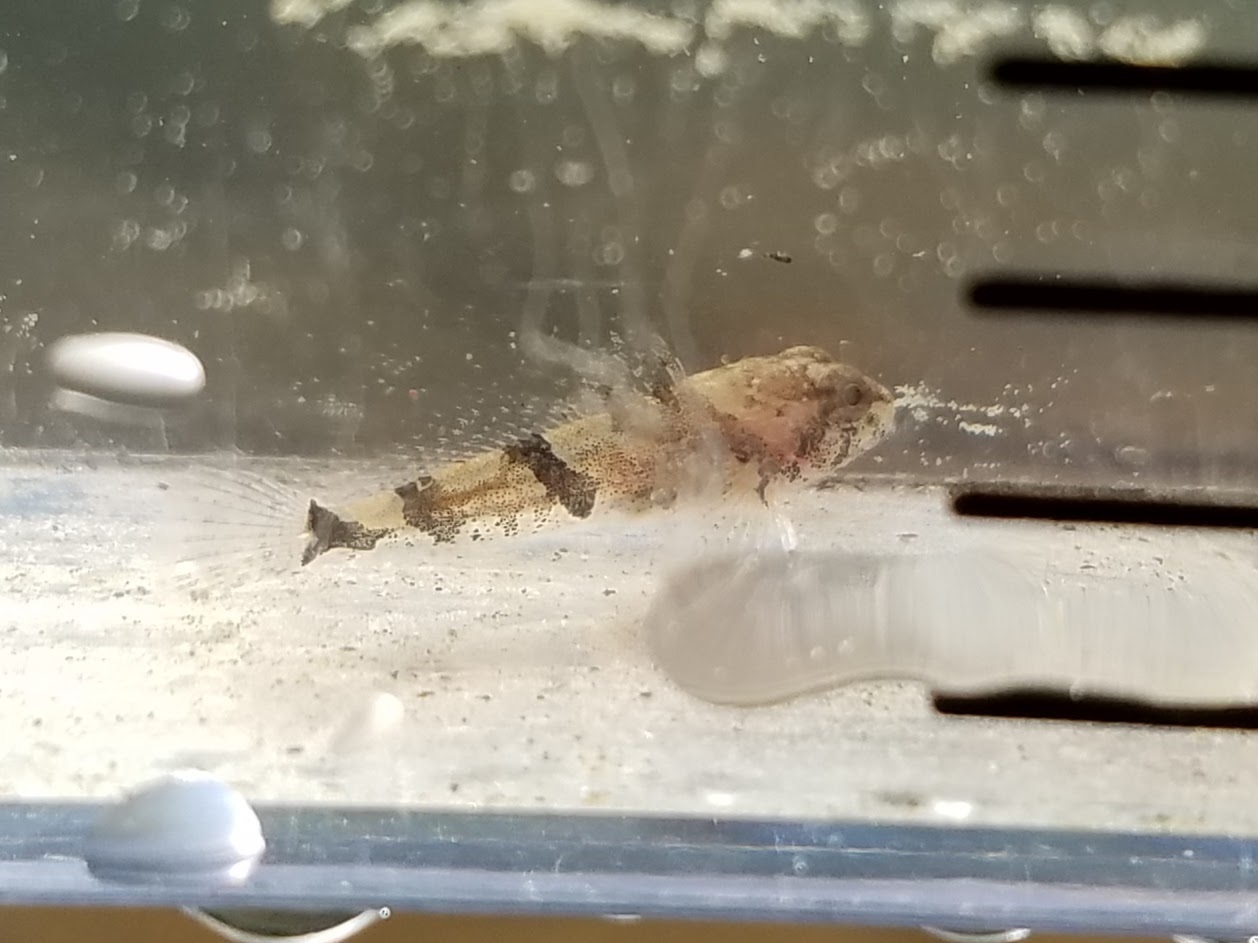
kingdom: Animalia
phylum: Chordata
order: Scorpaeniformes
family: Cottidae
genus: Cottus
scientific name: Cottus carolinae
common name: Banded sculpin
